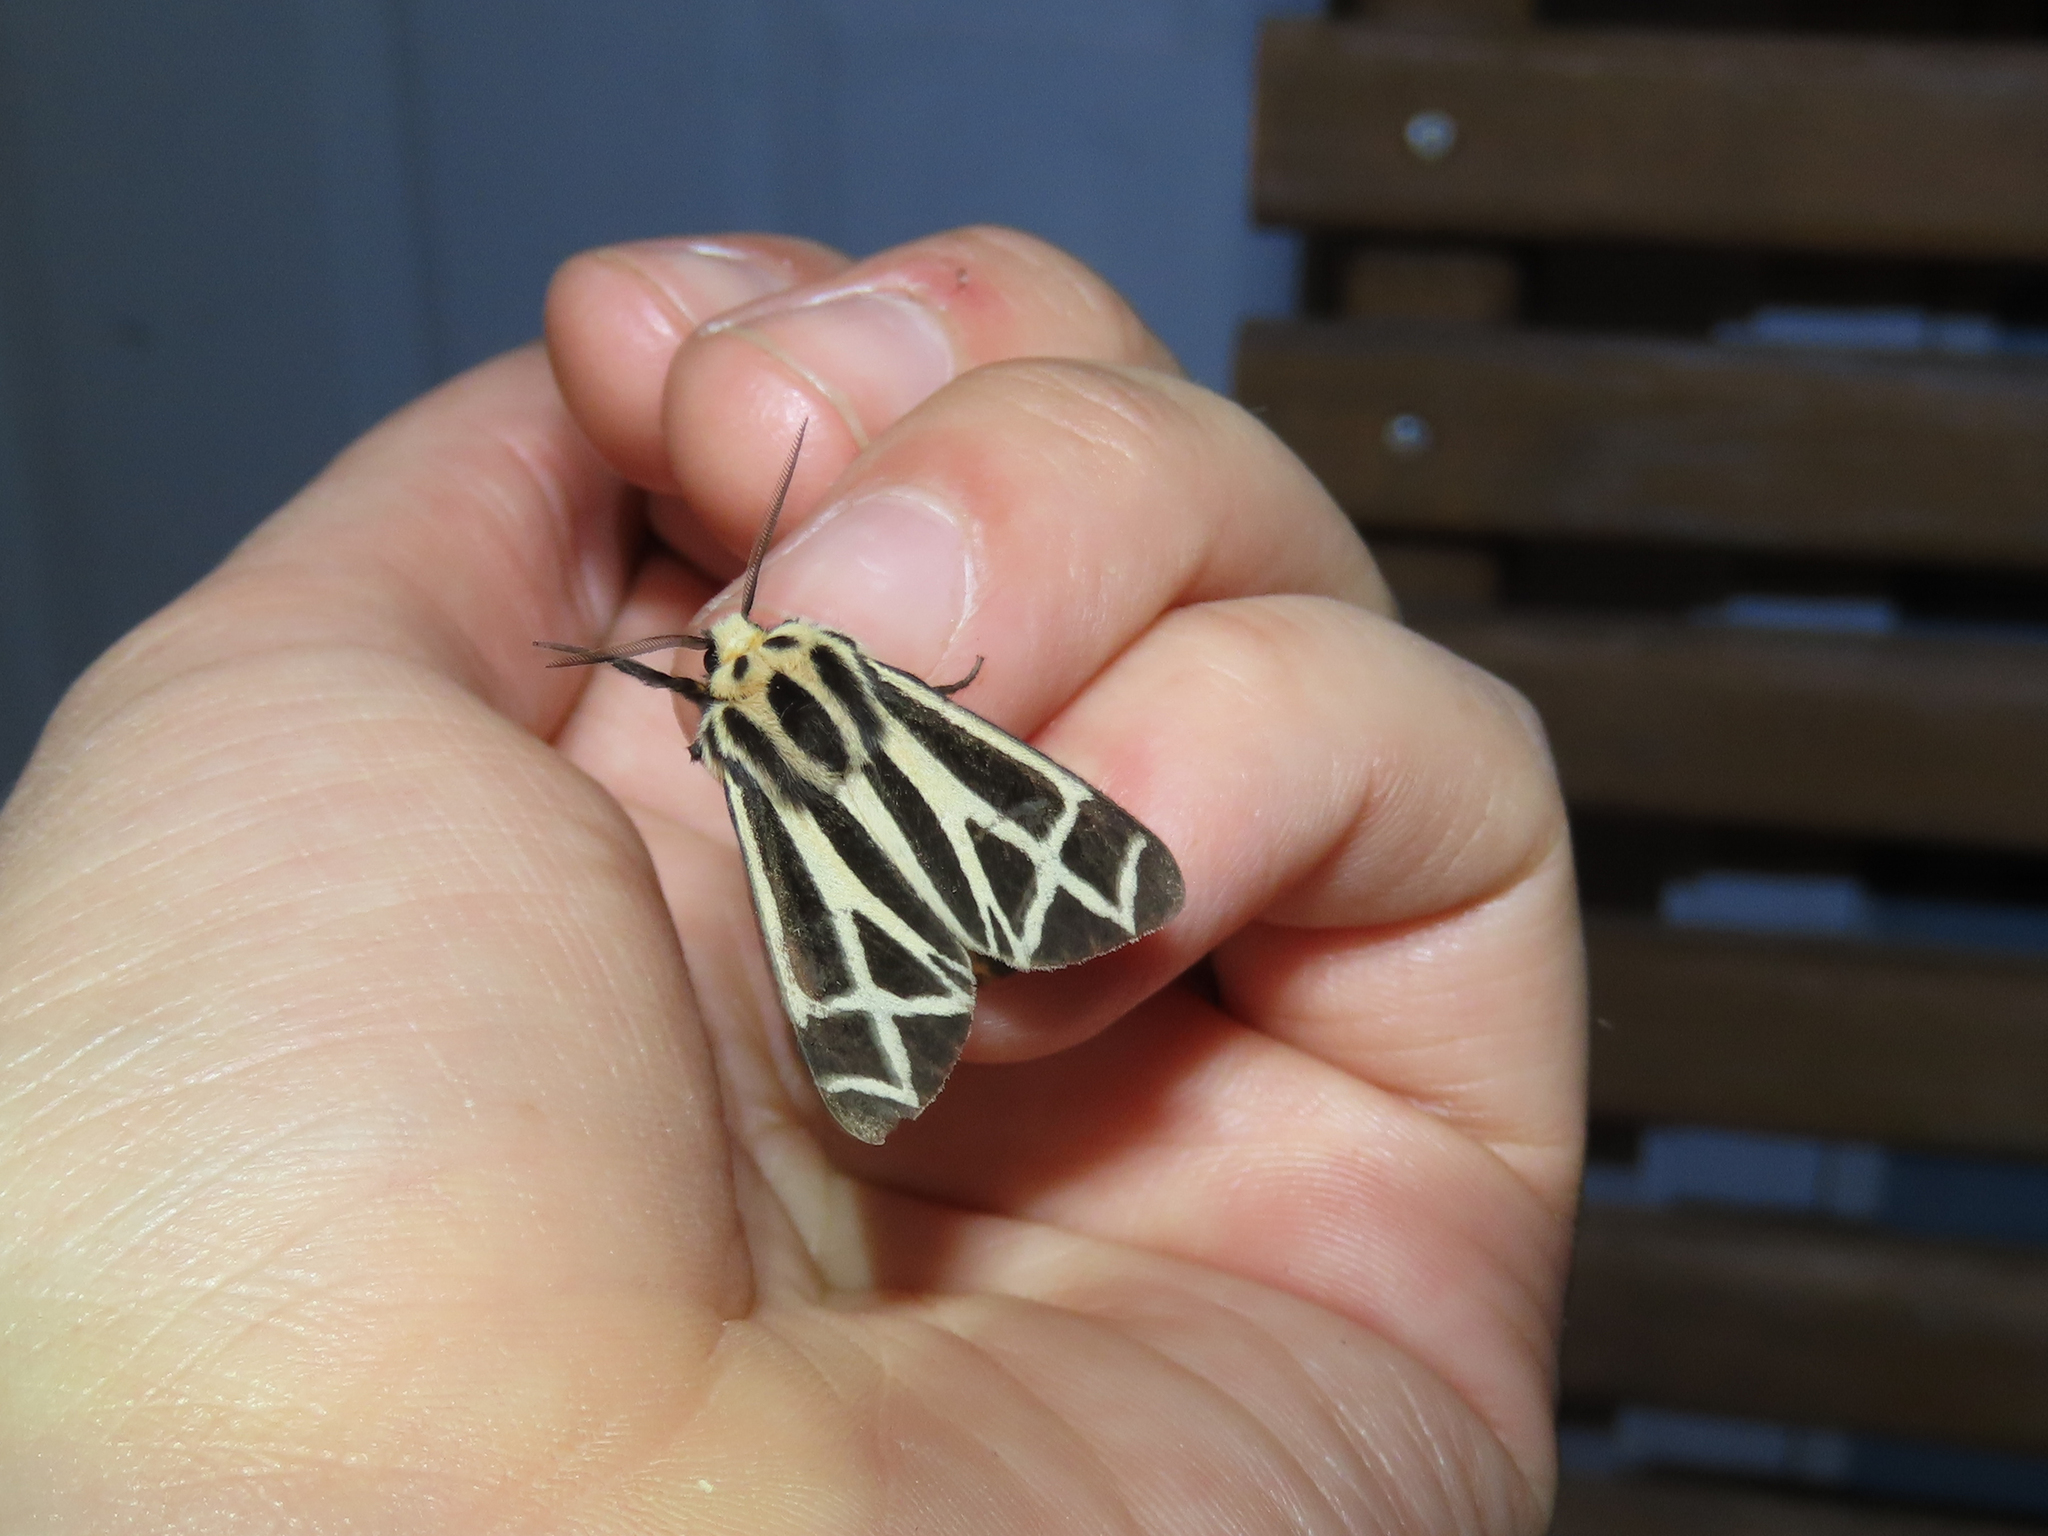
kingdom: Animalia
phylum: Arthropoda
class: Insecta
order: Lepidoptera
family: Erebidae
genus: Apantesis
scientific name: Apantesis phalerata
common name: Harnessed tiger moth
